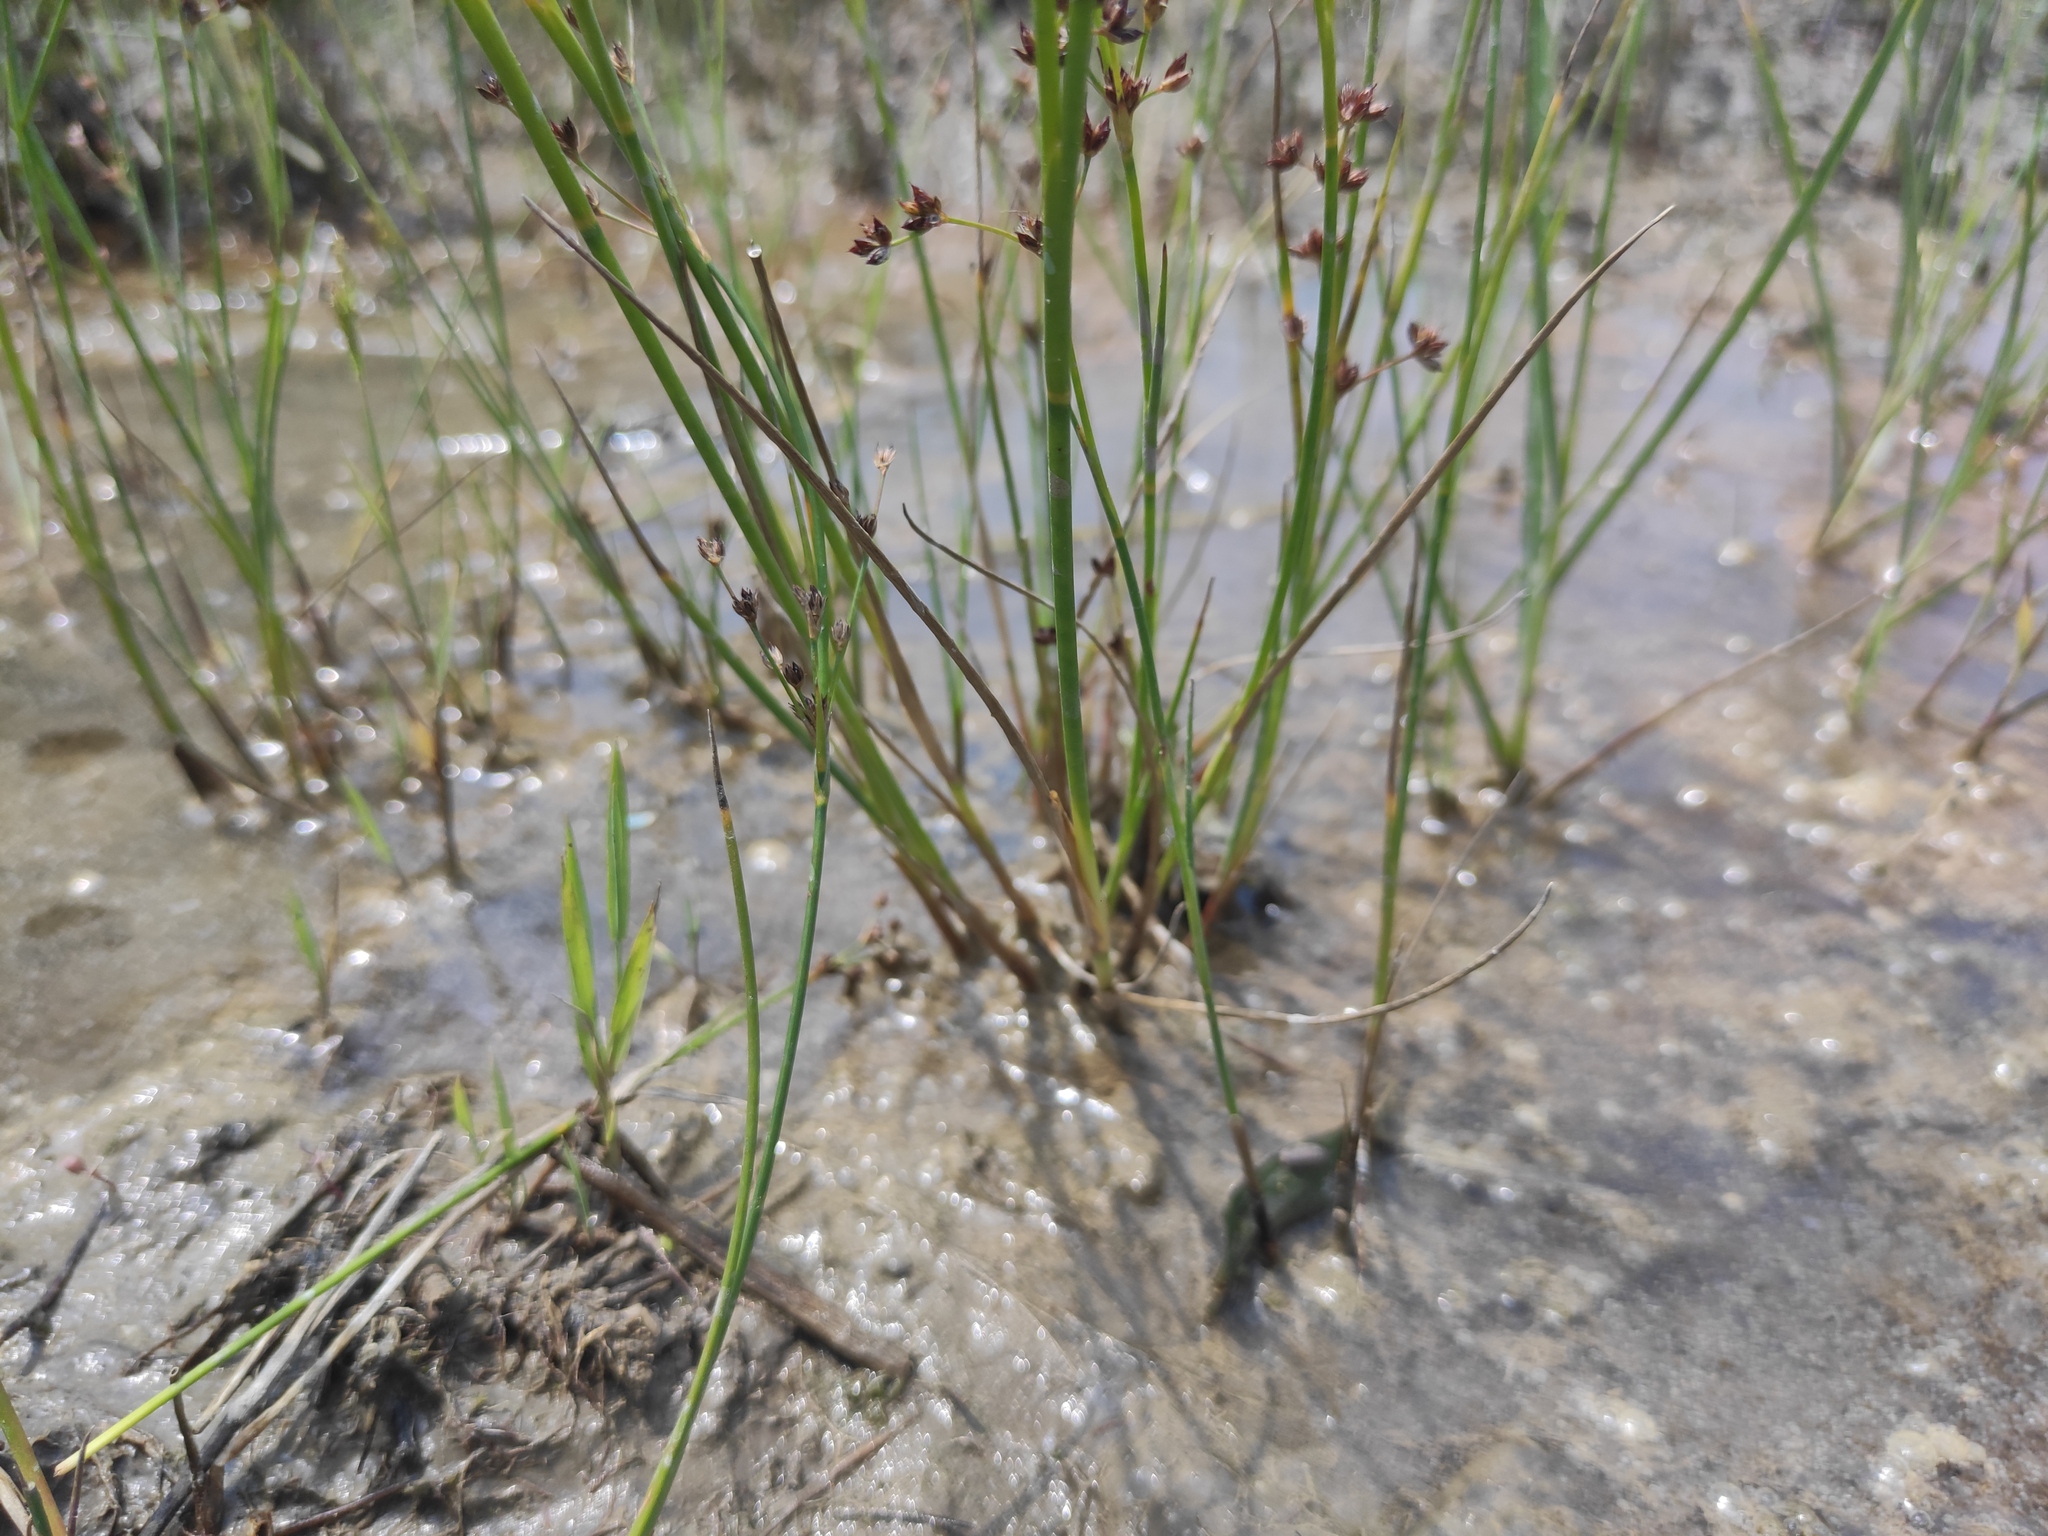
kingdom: Plantae
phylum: Tracheophyta
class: Liliopsida
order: Poales
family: Juncaceae
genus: Juncus
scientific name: Juncus articulatus
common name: Jointed rush
